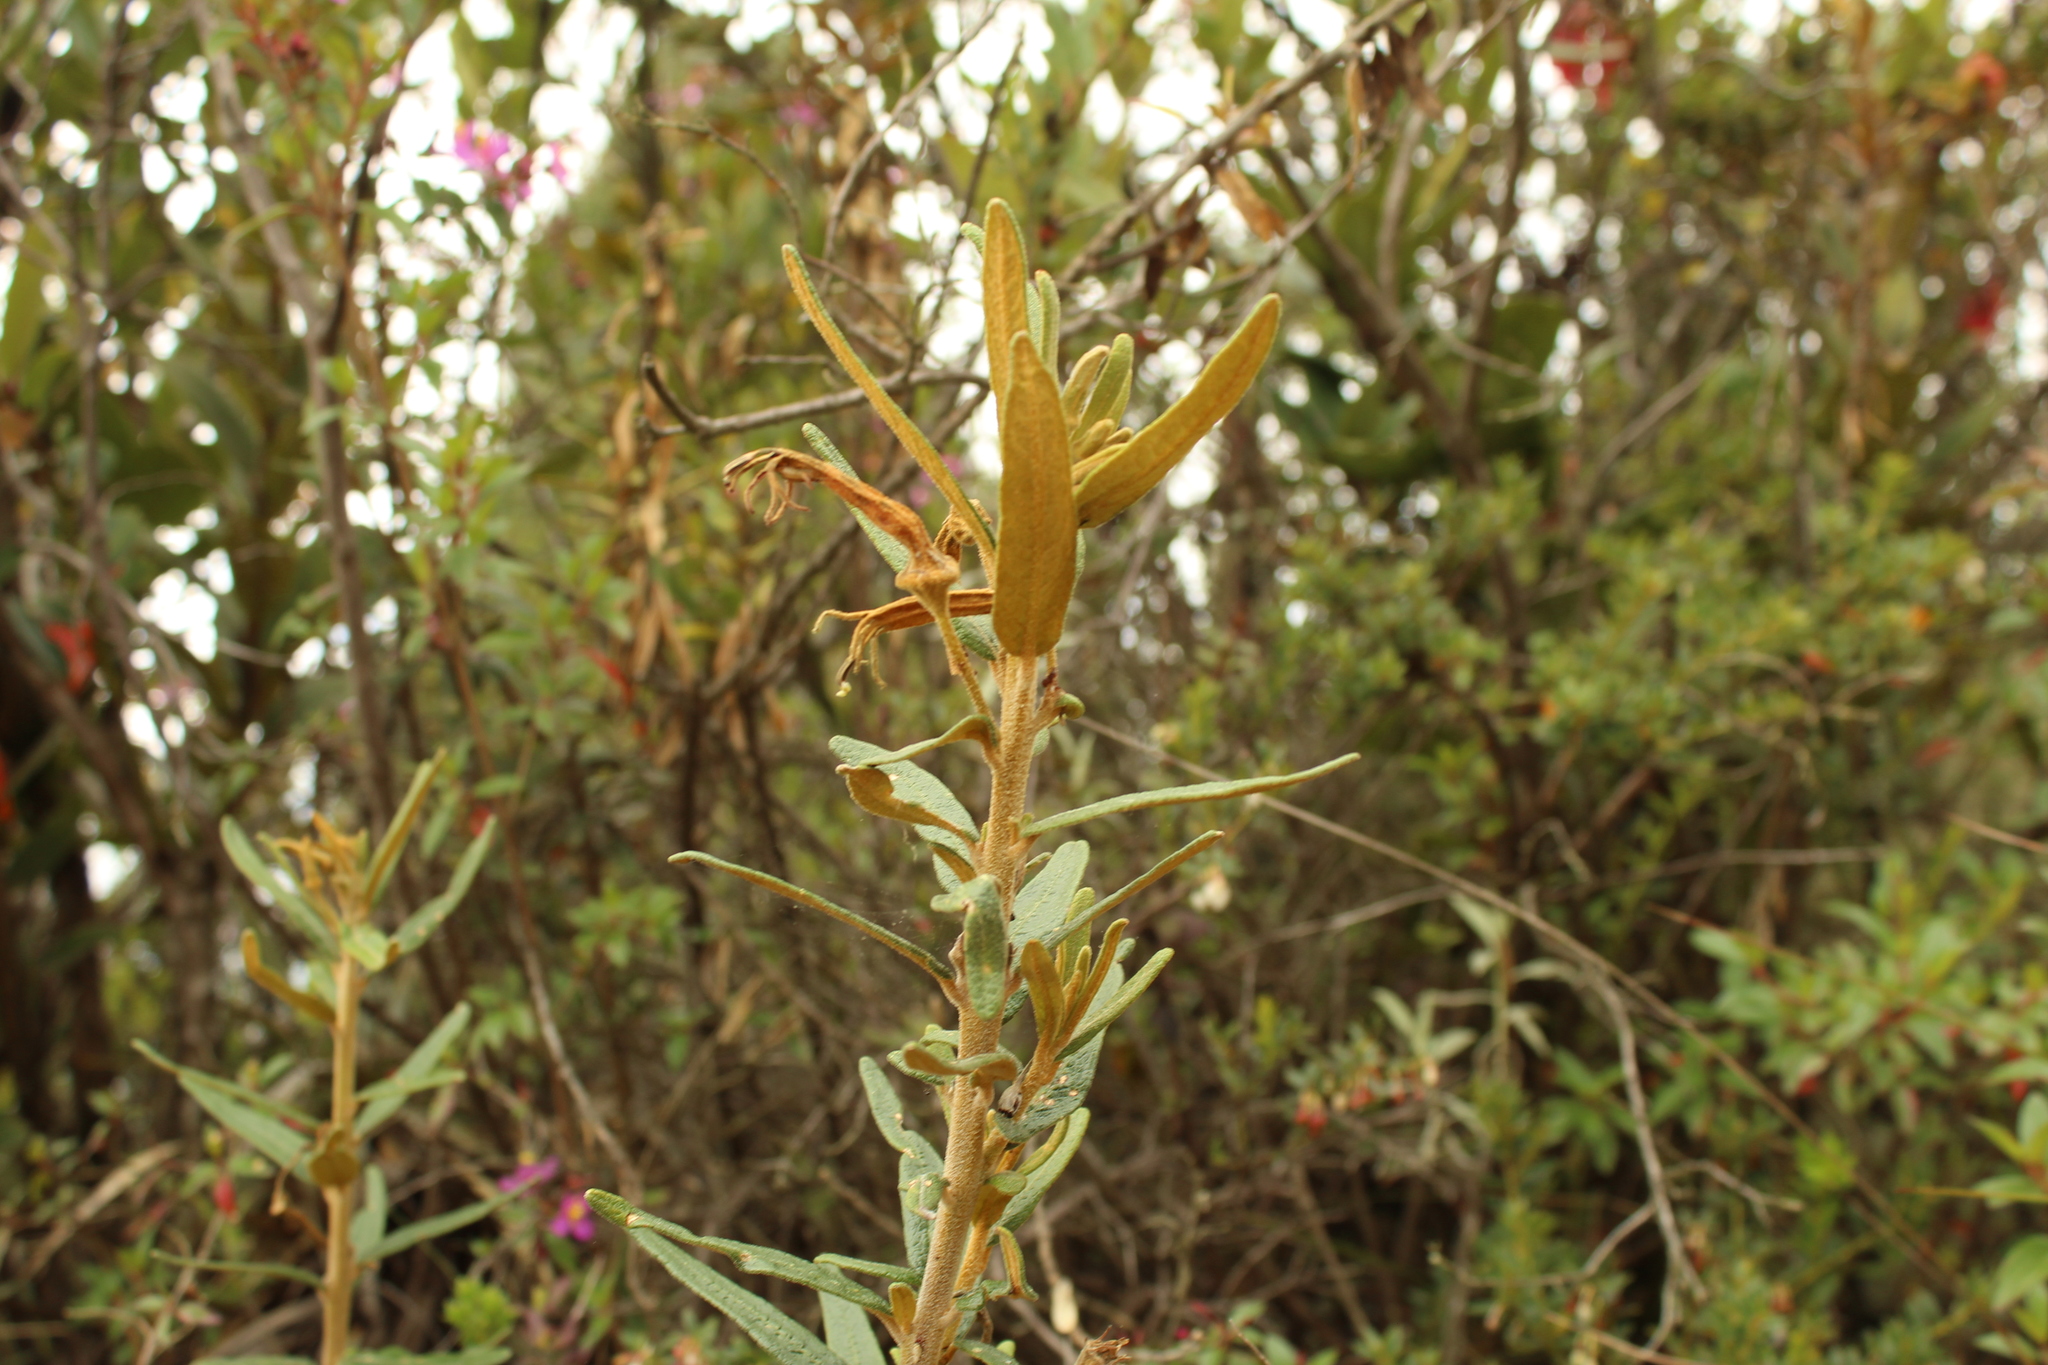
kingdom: Plantae
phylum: Tracheophyta
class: Magnoliopsida
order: Asterales
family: Campanulaceae
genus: Siphocampylus
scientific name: Siphocampylus columnae
